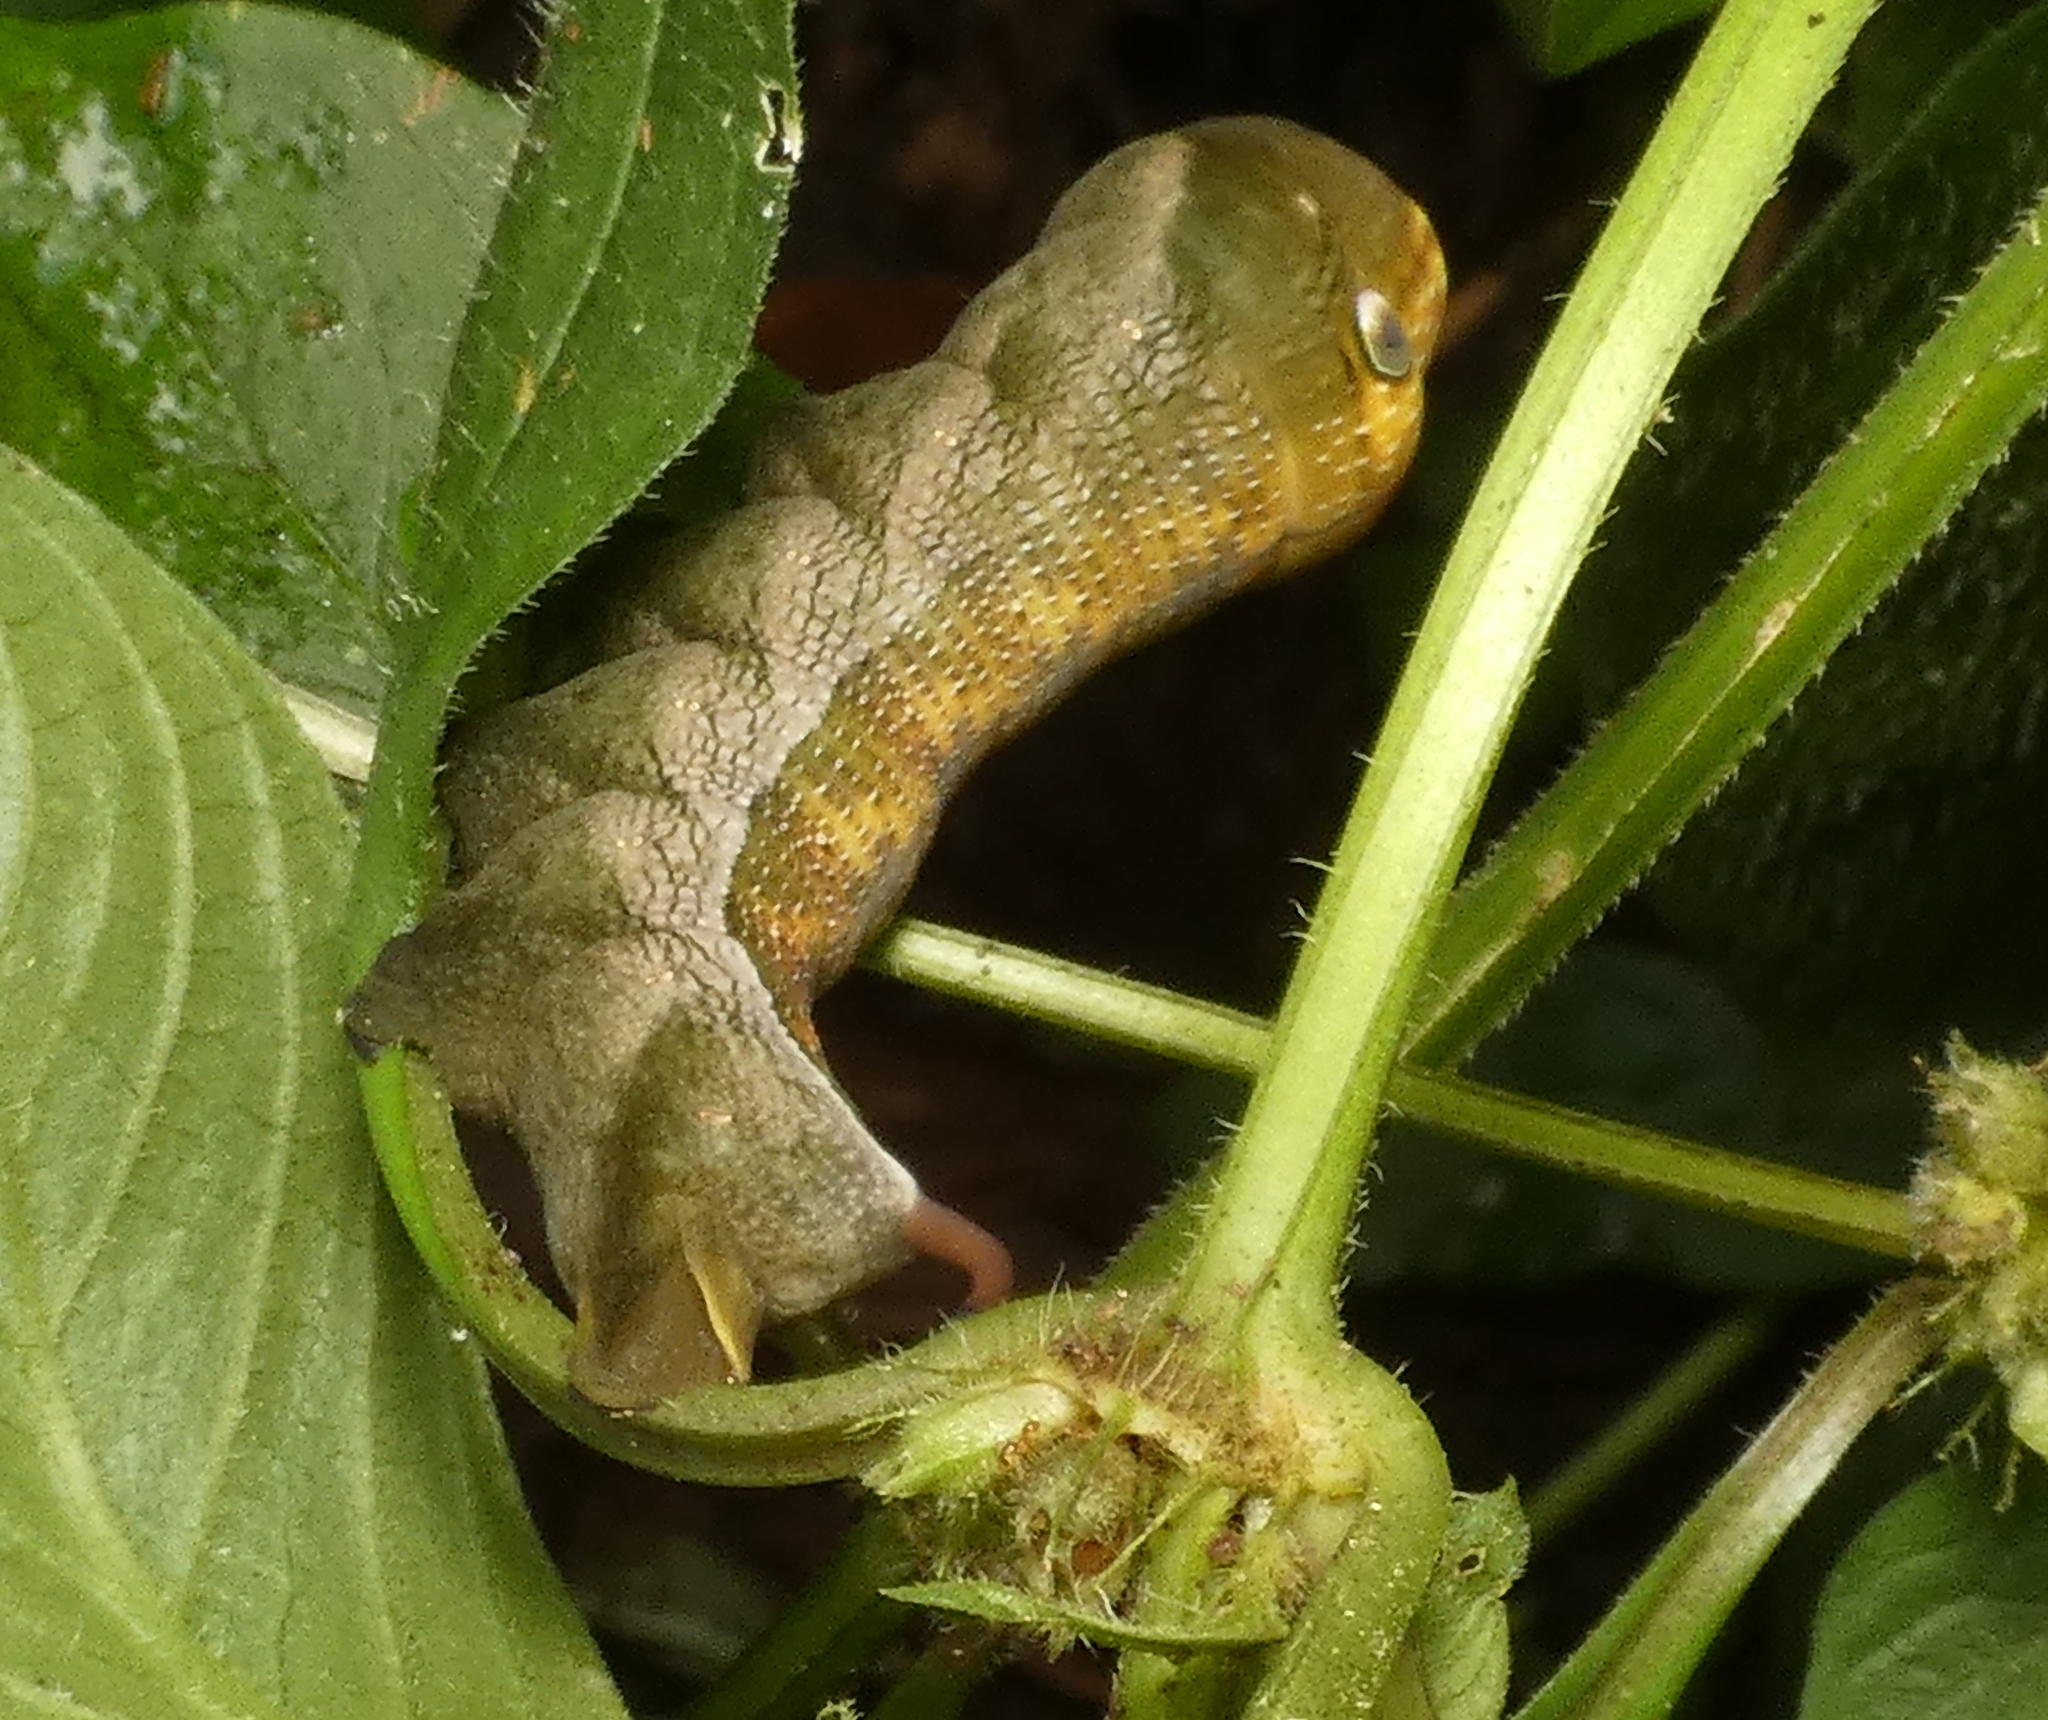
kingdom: Animalia
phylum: Arthropoda
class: Insecta
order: Lepidoptera
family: Sphingidae
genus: Xylophanes
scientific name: Xylophanes pluto
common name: Pluto sphinx
